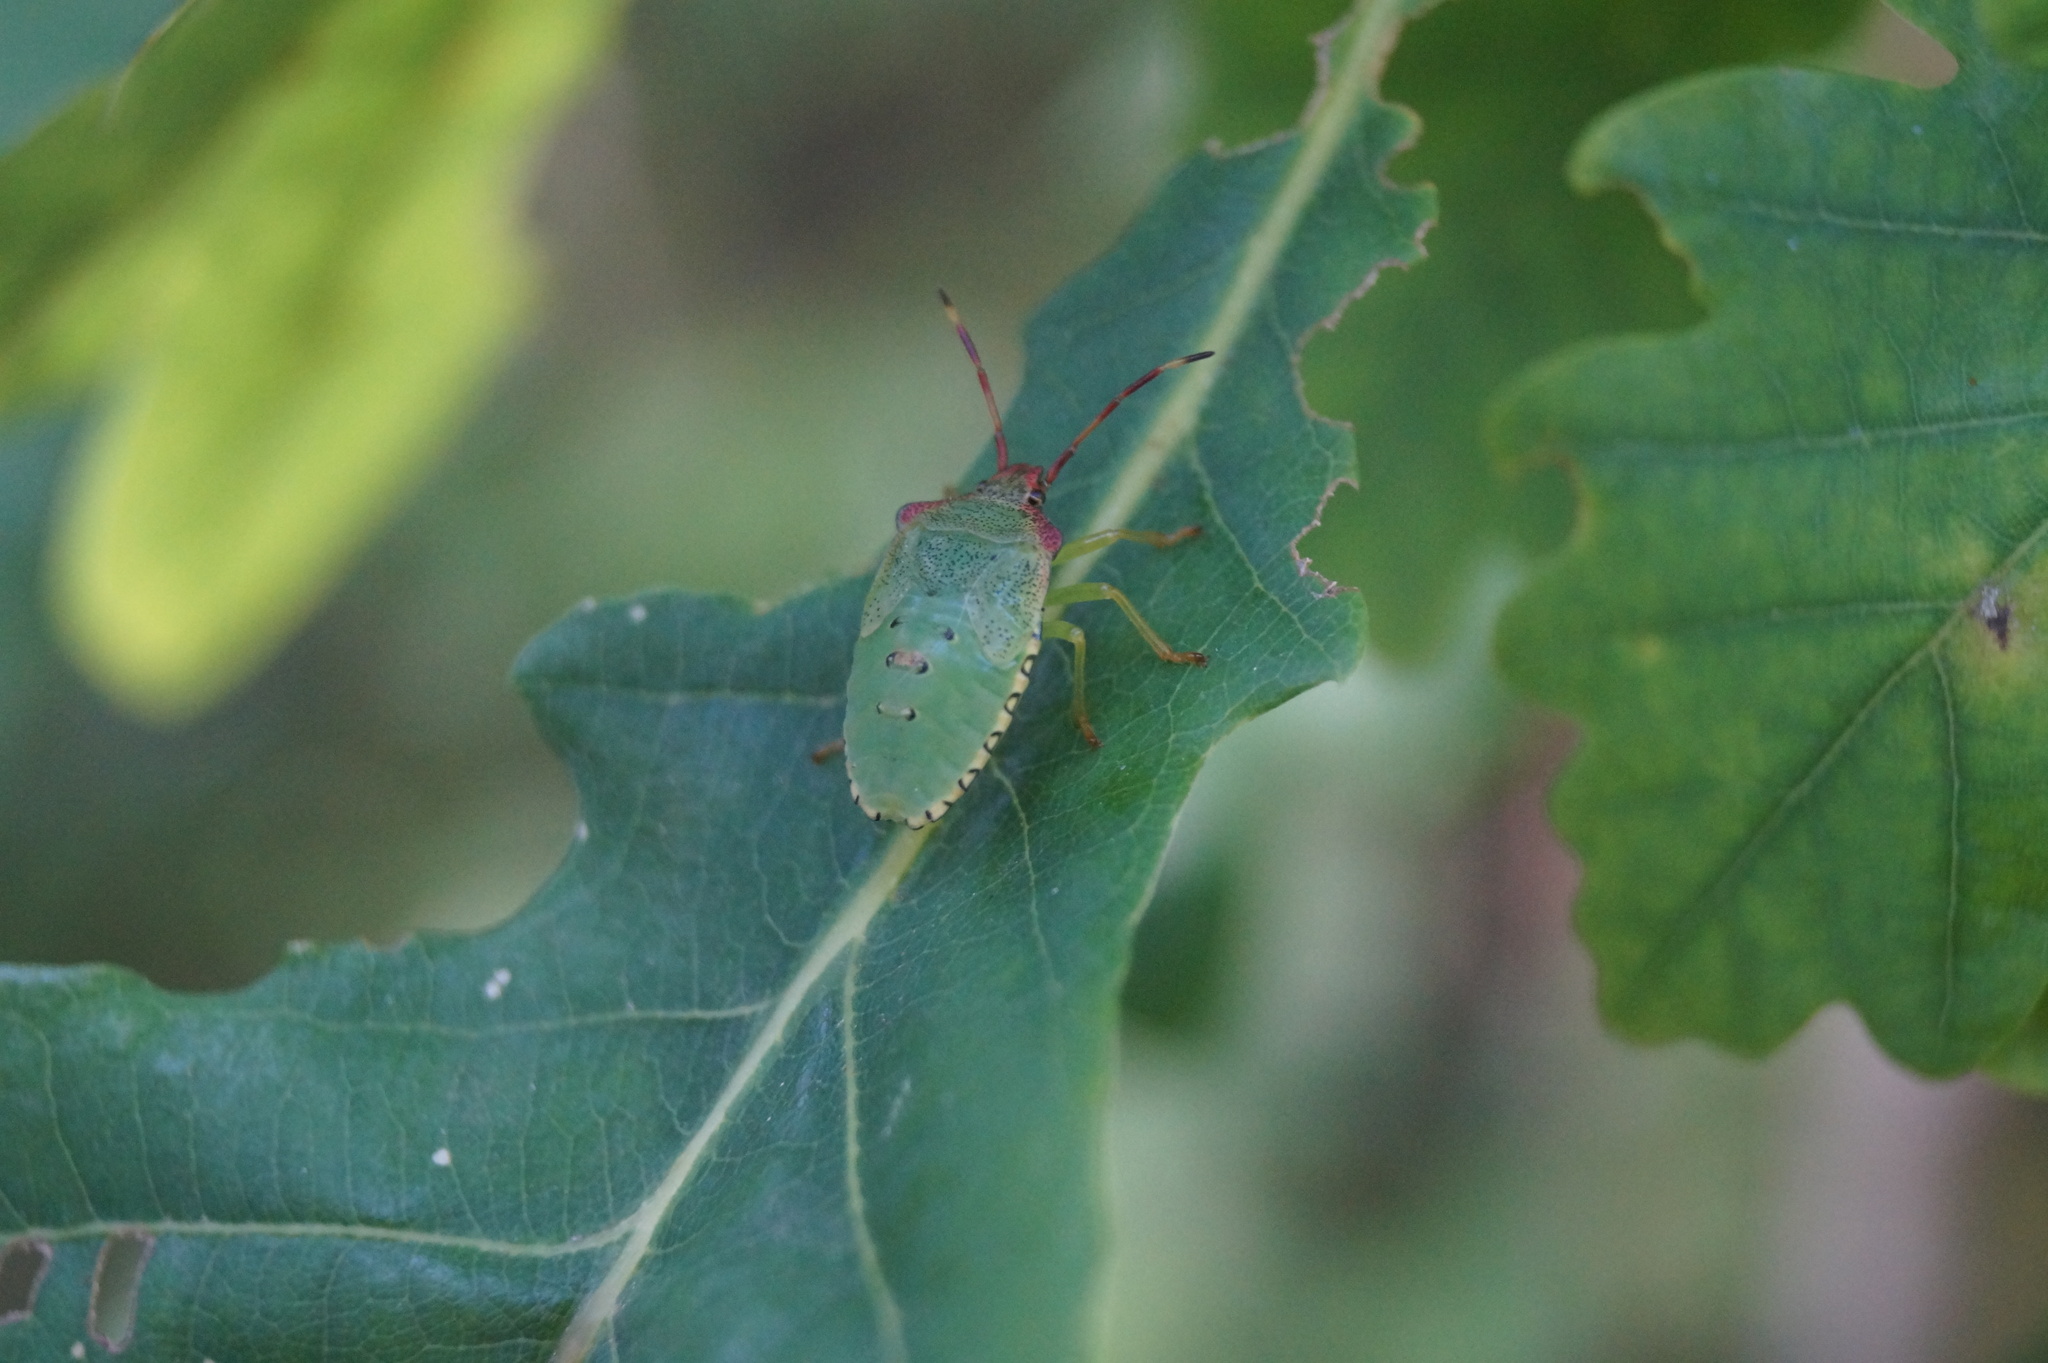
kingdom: Animalia
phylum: Arthropoda
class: Insecta
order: Hemiptera
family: Acanthosomatidae
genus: Acanthosoma
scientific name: Acanthosoma haemorrhoidale
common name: Hawthorn shieldbug
